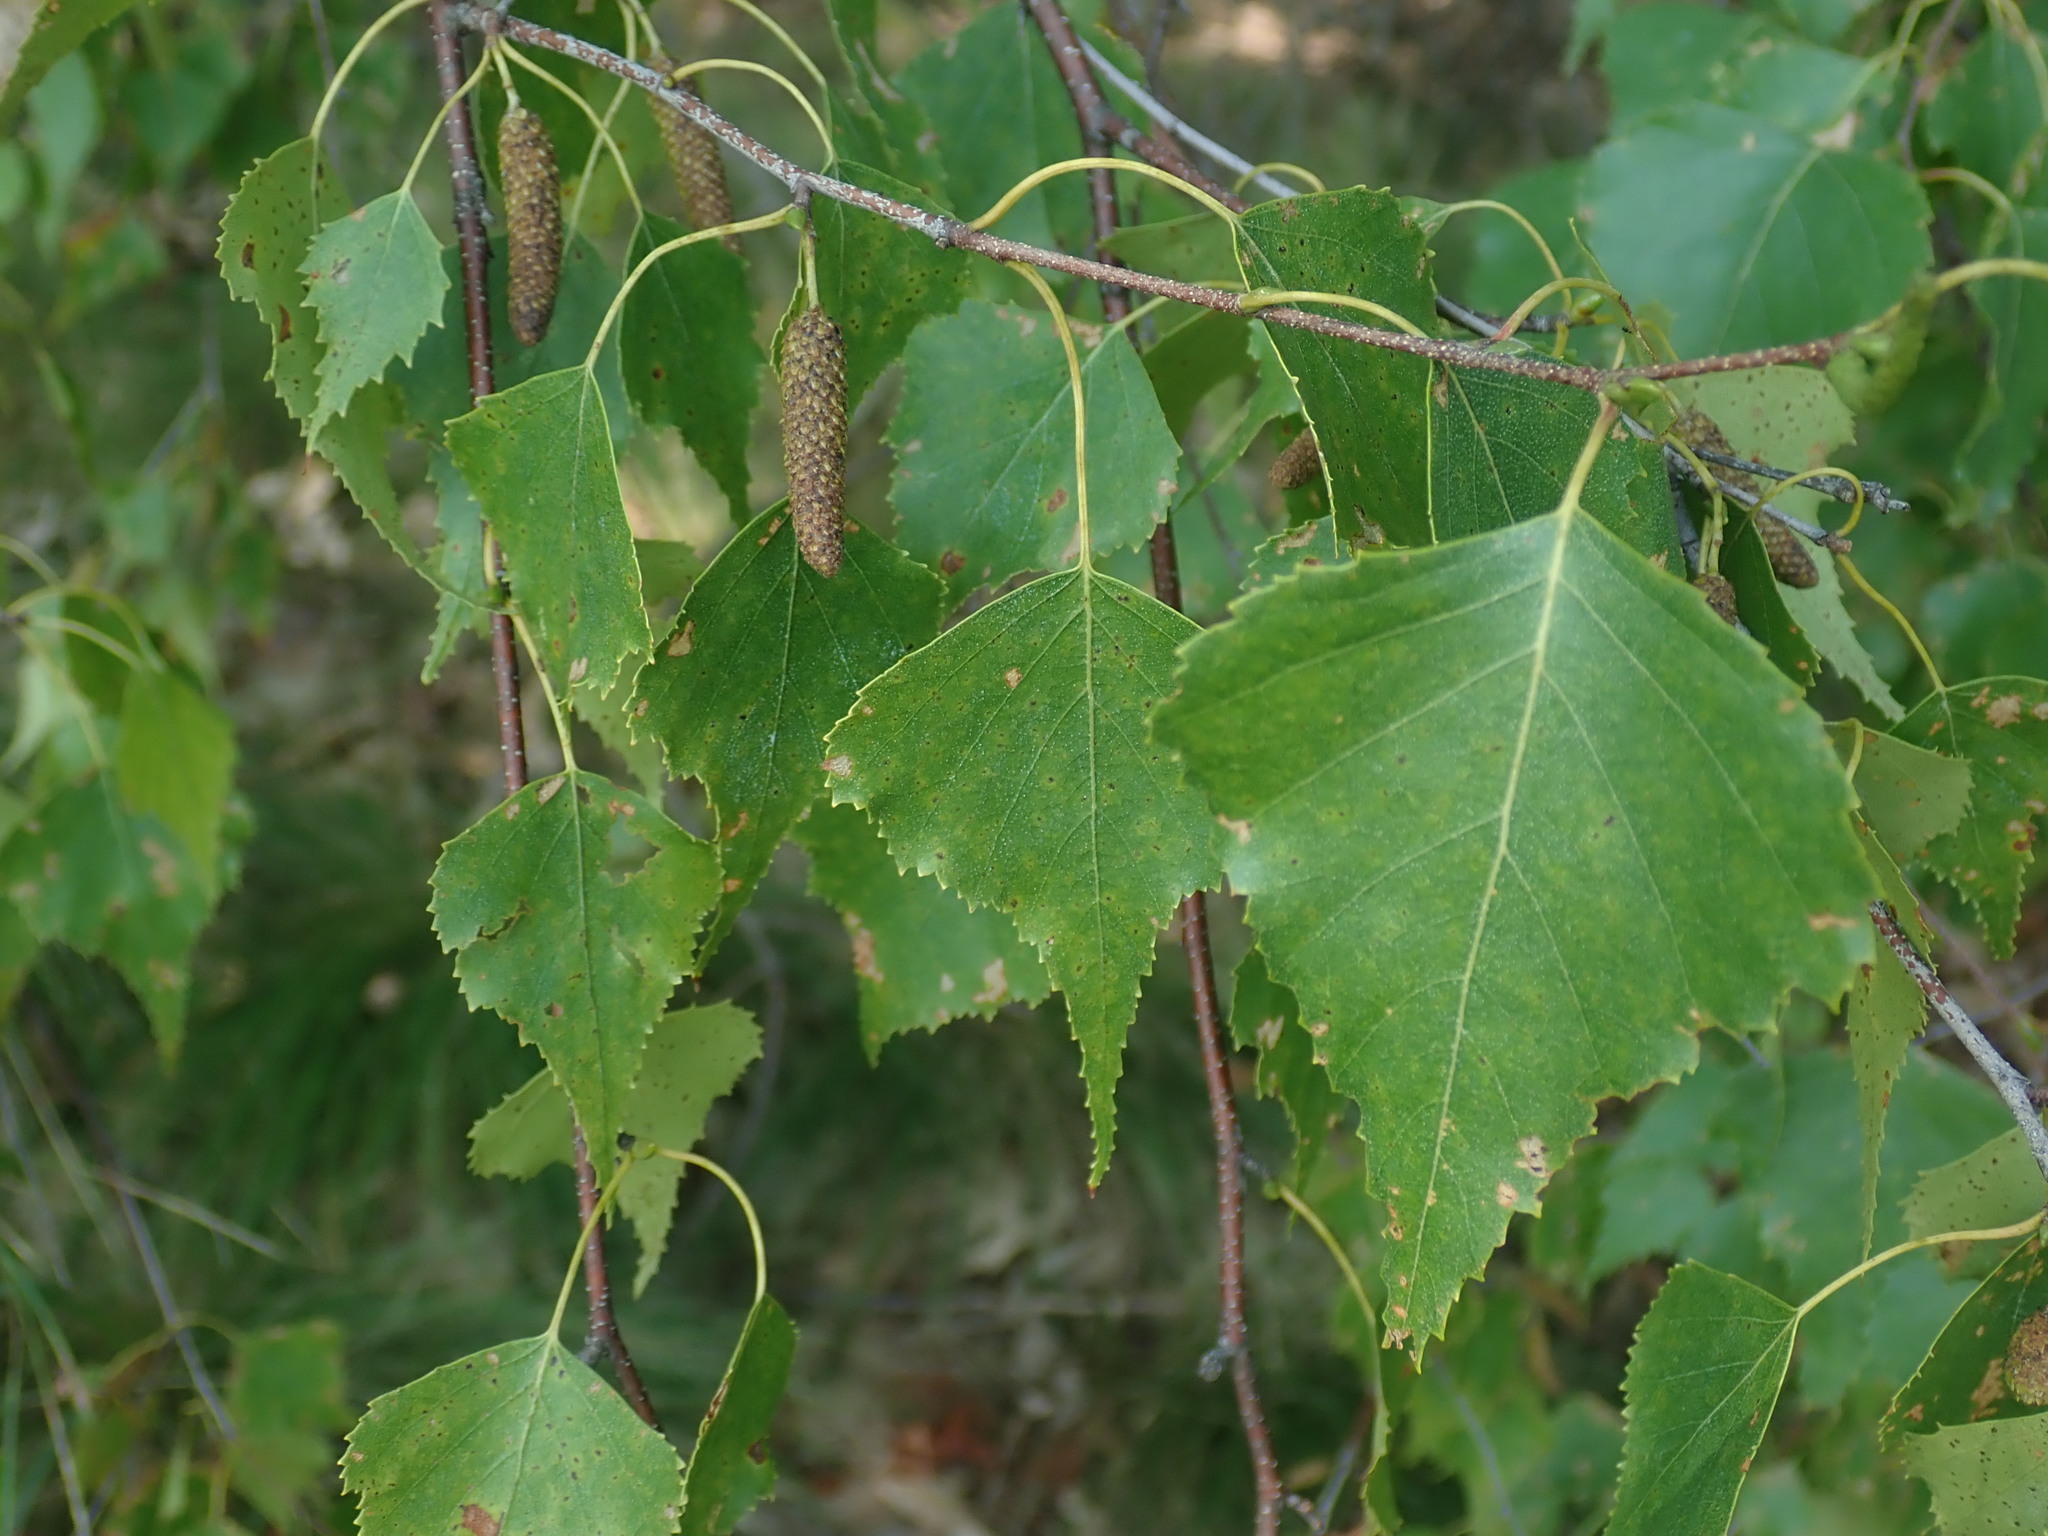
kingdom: Plantae
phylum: Tracheophyta
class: Magnoliopsida
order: Fagales
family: Betulaceae
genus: Betula
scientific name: Betula populifolia
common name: Fire birch
